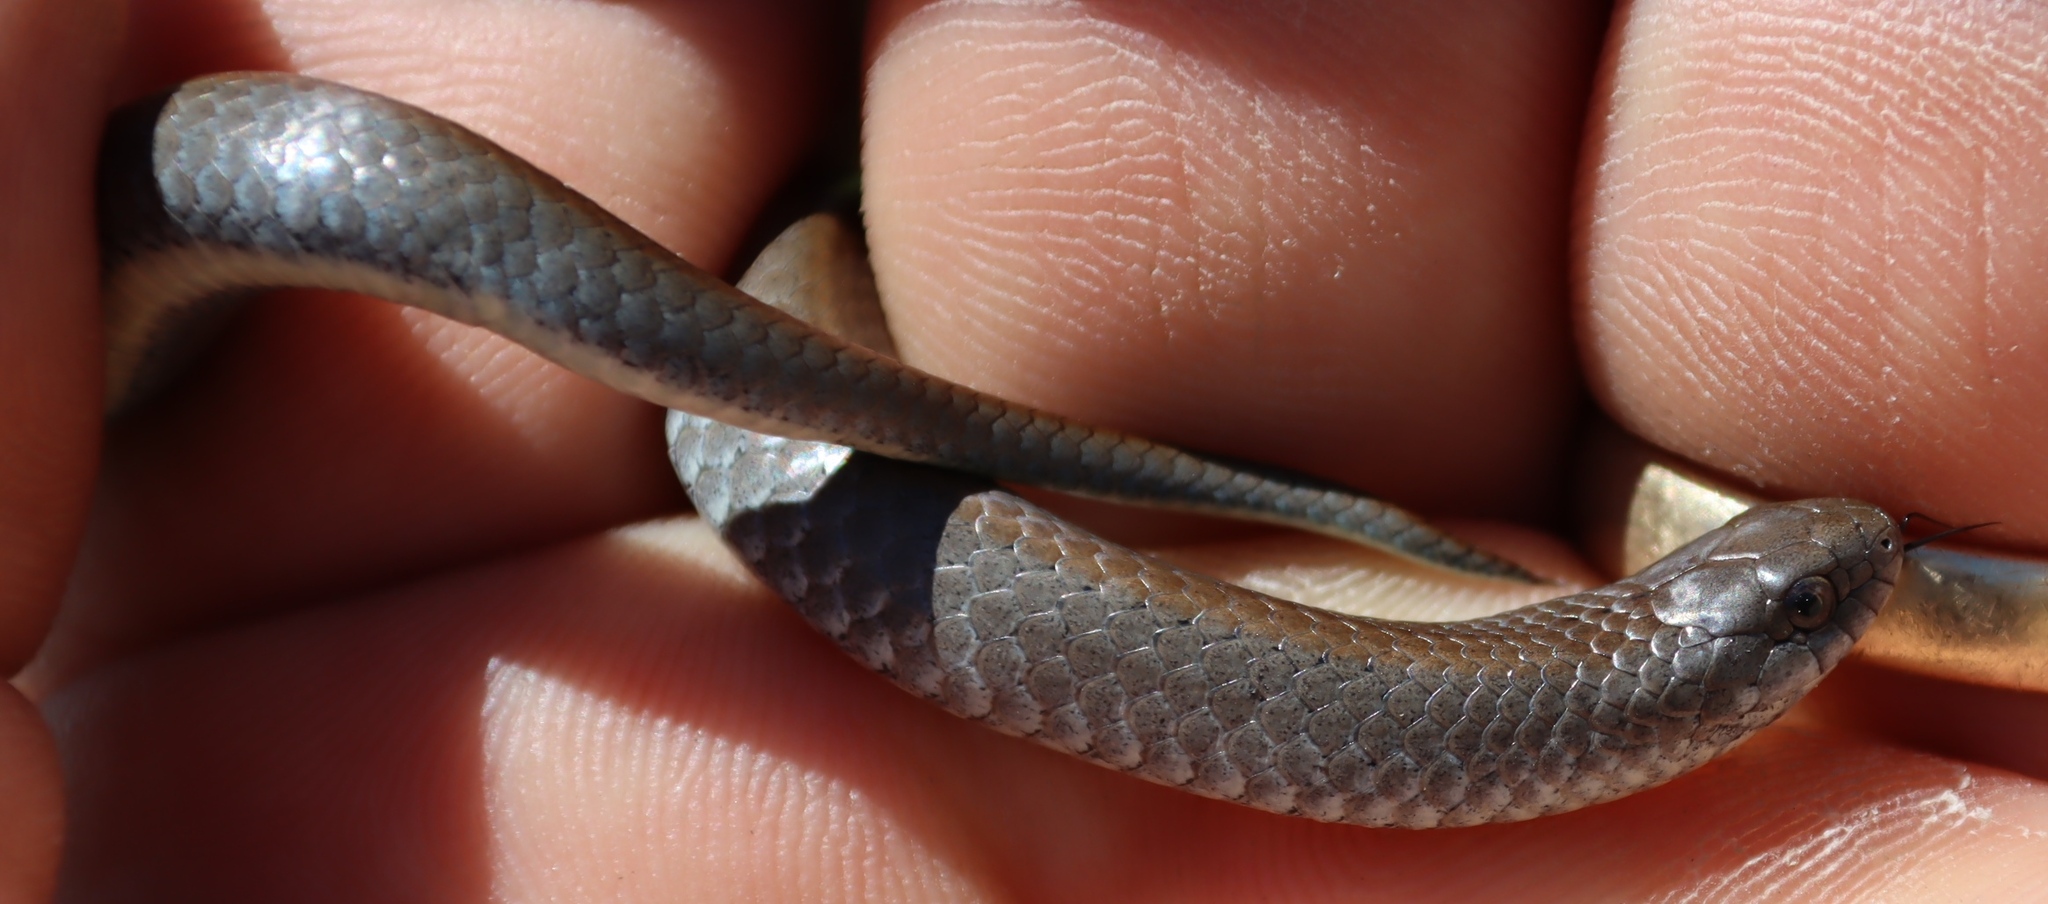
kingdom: Animalia
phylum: Chordata
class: Squamata
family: Pseudoxyrhophiidae
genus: Duberria
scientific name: Duberria lutrix
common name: Common slug eater
